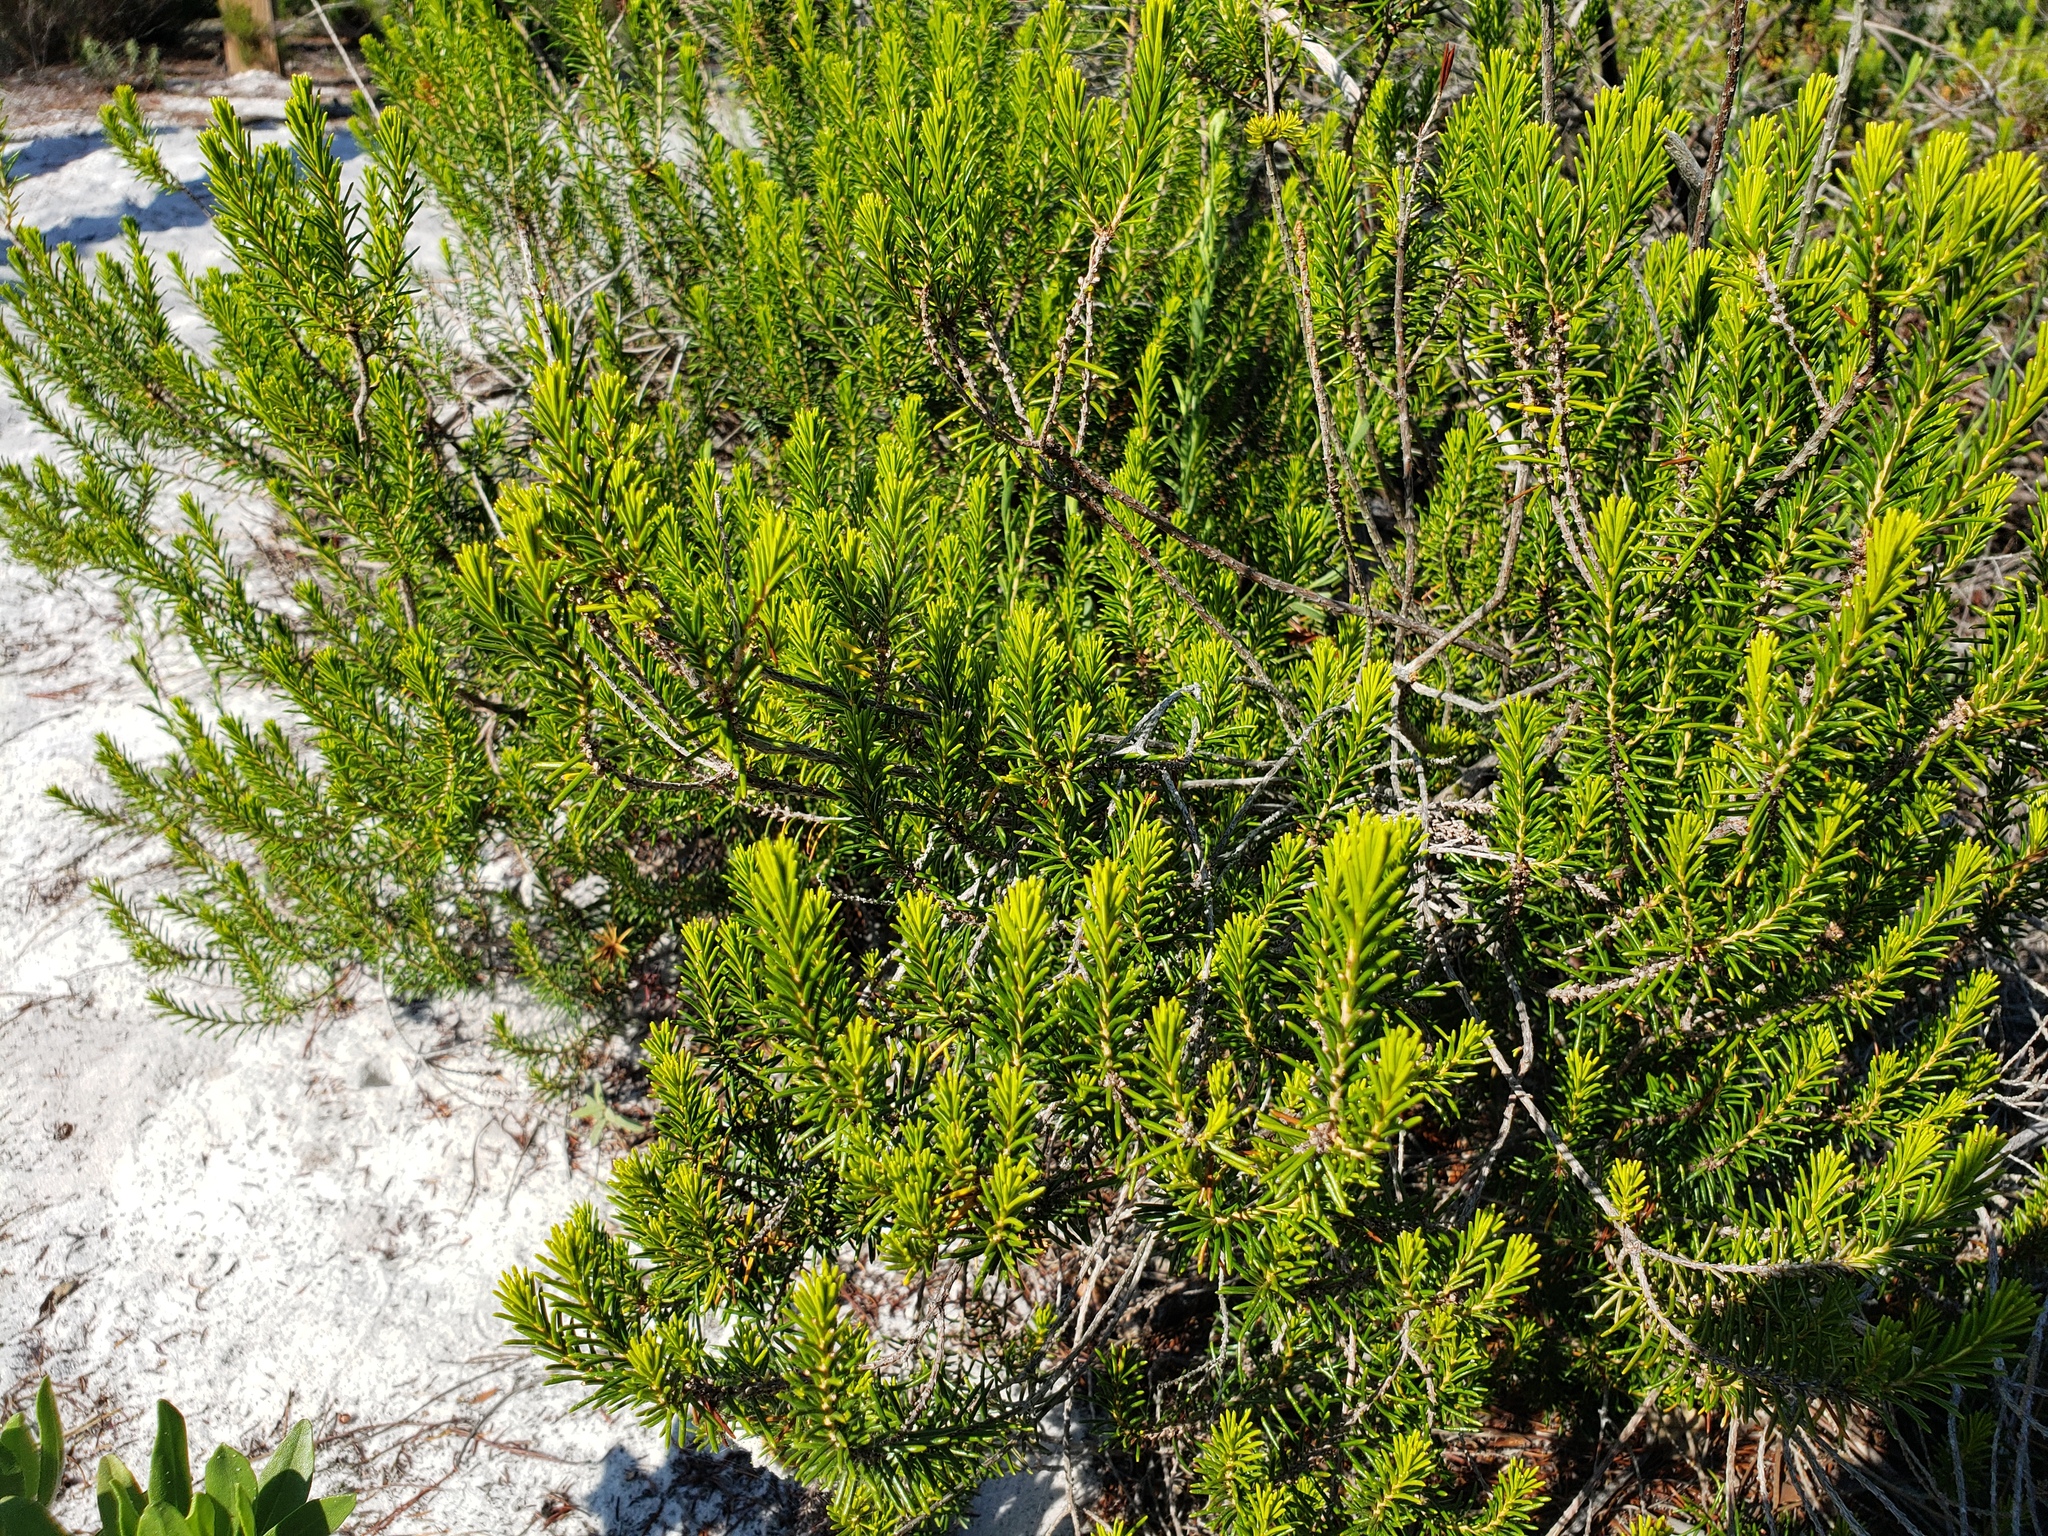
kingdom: Plantae
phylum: Tracheophyta
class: Magnoliopsida
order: Ericales
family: Ericaceae
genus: Ceratiola
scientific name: Ceratiola ericoides
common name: Sandhill-rosemary
